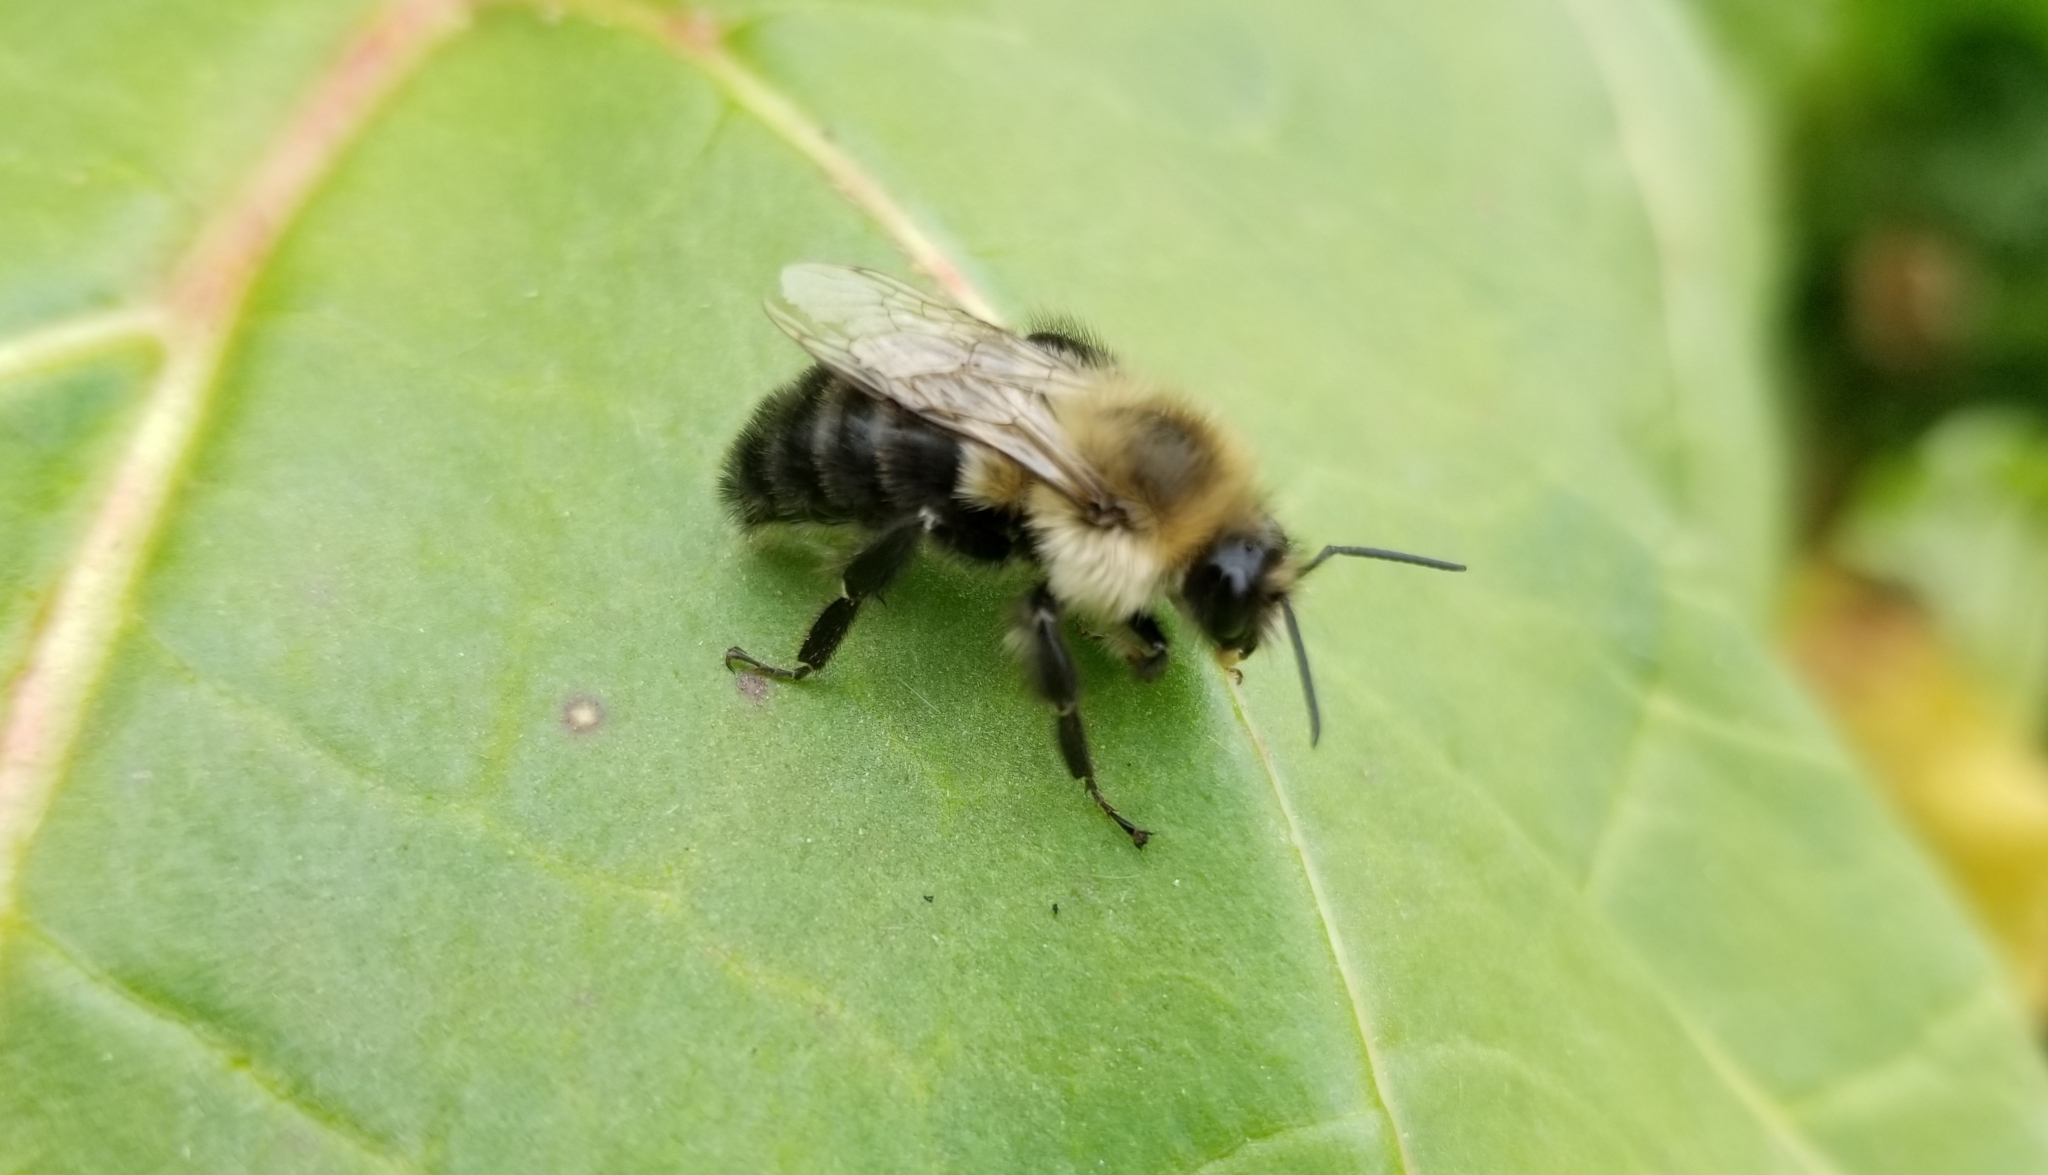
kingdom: Animalia
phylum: Arthropoda
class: Insecta
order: Hymenoptera
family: Apidae
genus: Bombus
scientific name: Bombus impatiens
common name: Common eastern bumble bee
